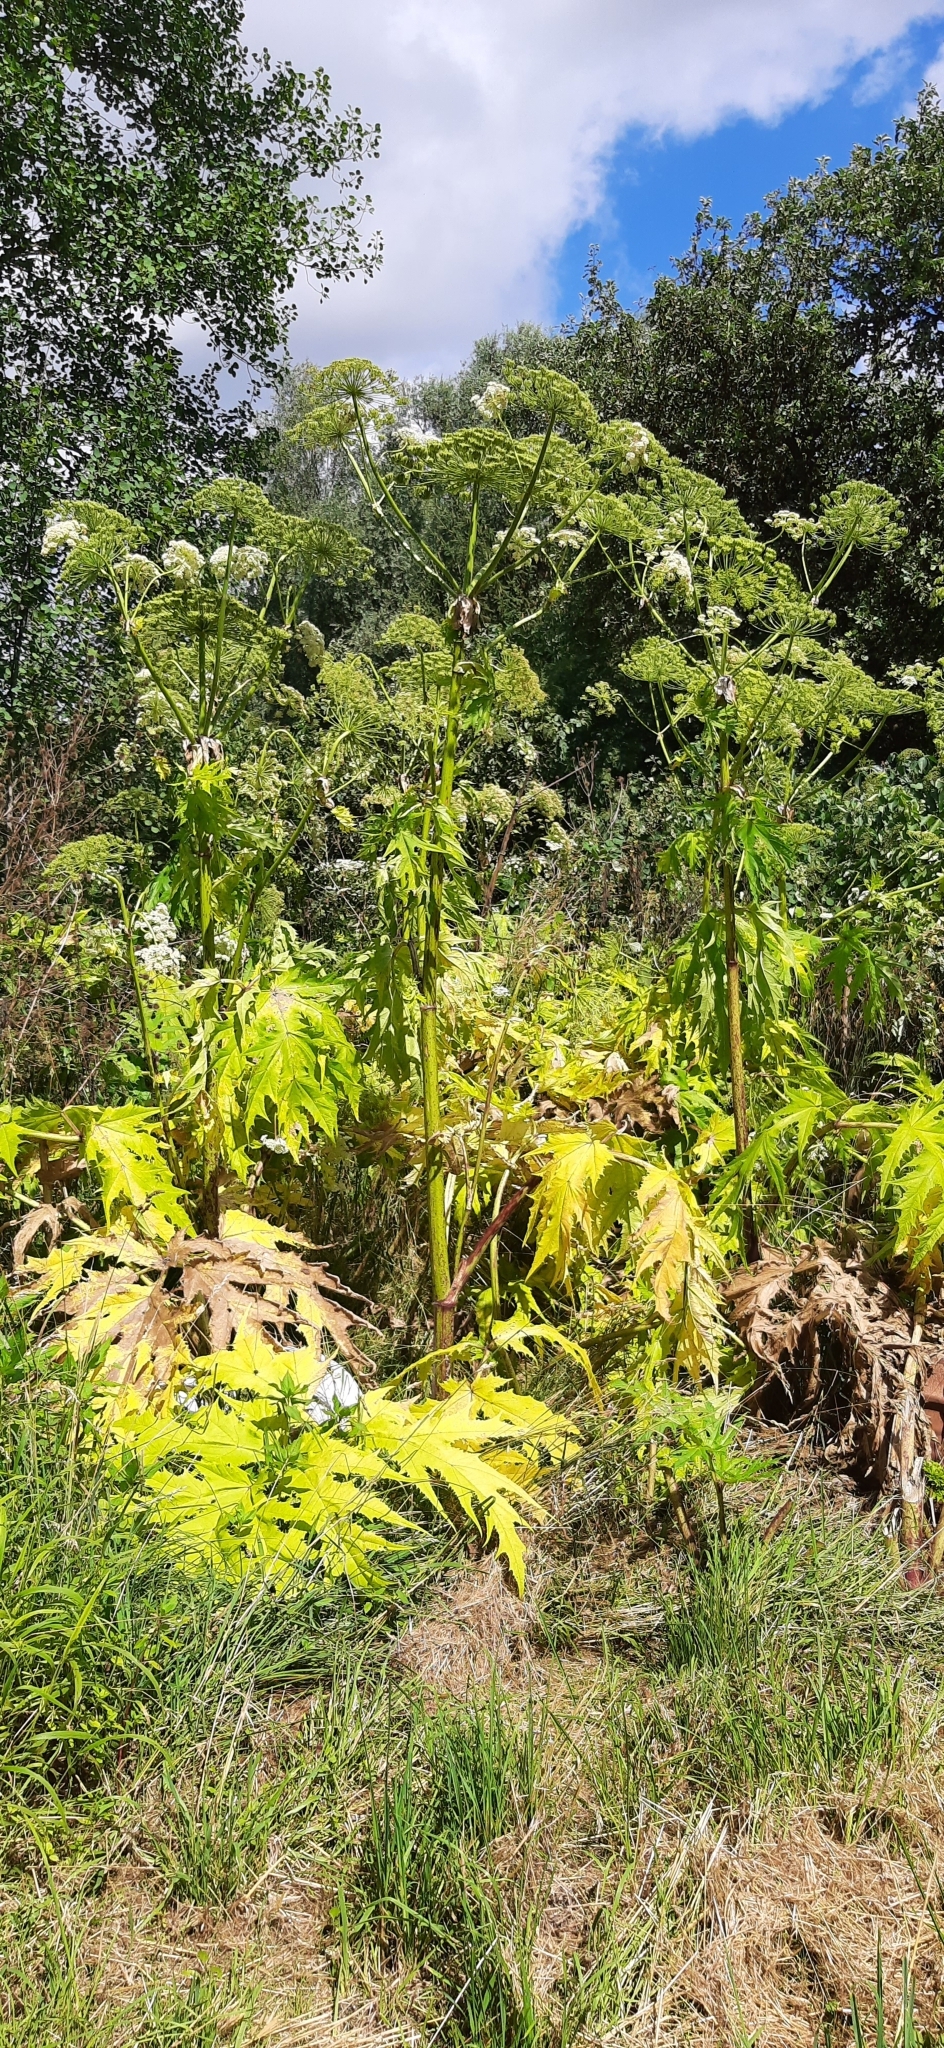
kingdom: Plantae
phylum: Tracheophyta
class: Magnoliopsida
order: Apiales
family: Apiaceae
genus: Heracleum
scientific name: Heracleum mantegazzianum
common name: Giant hogweed
